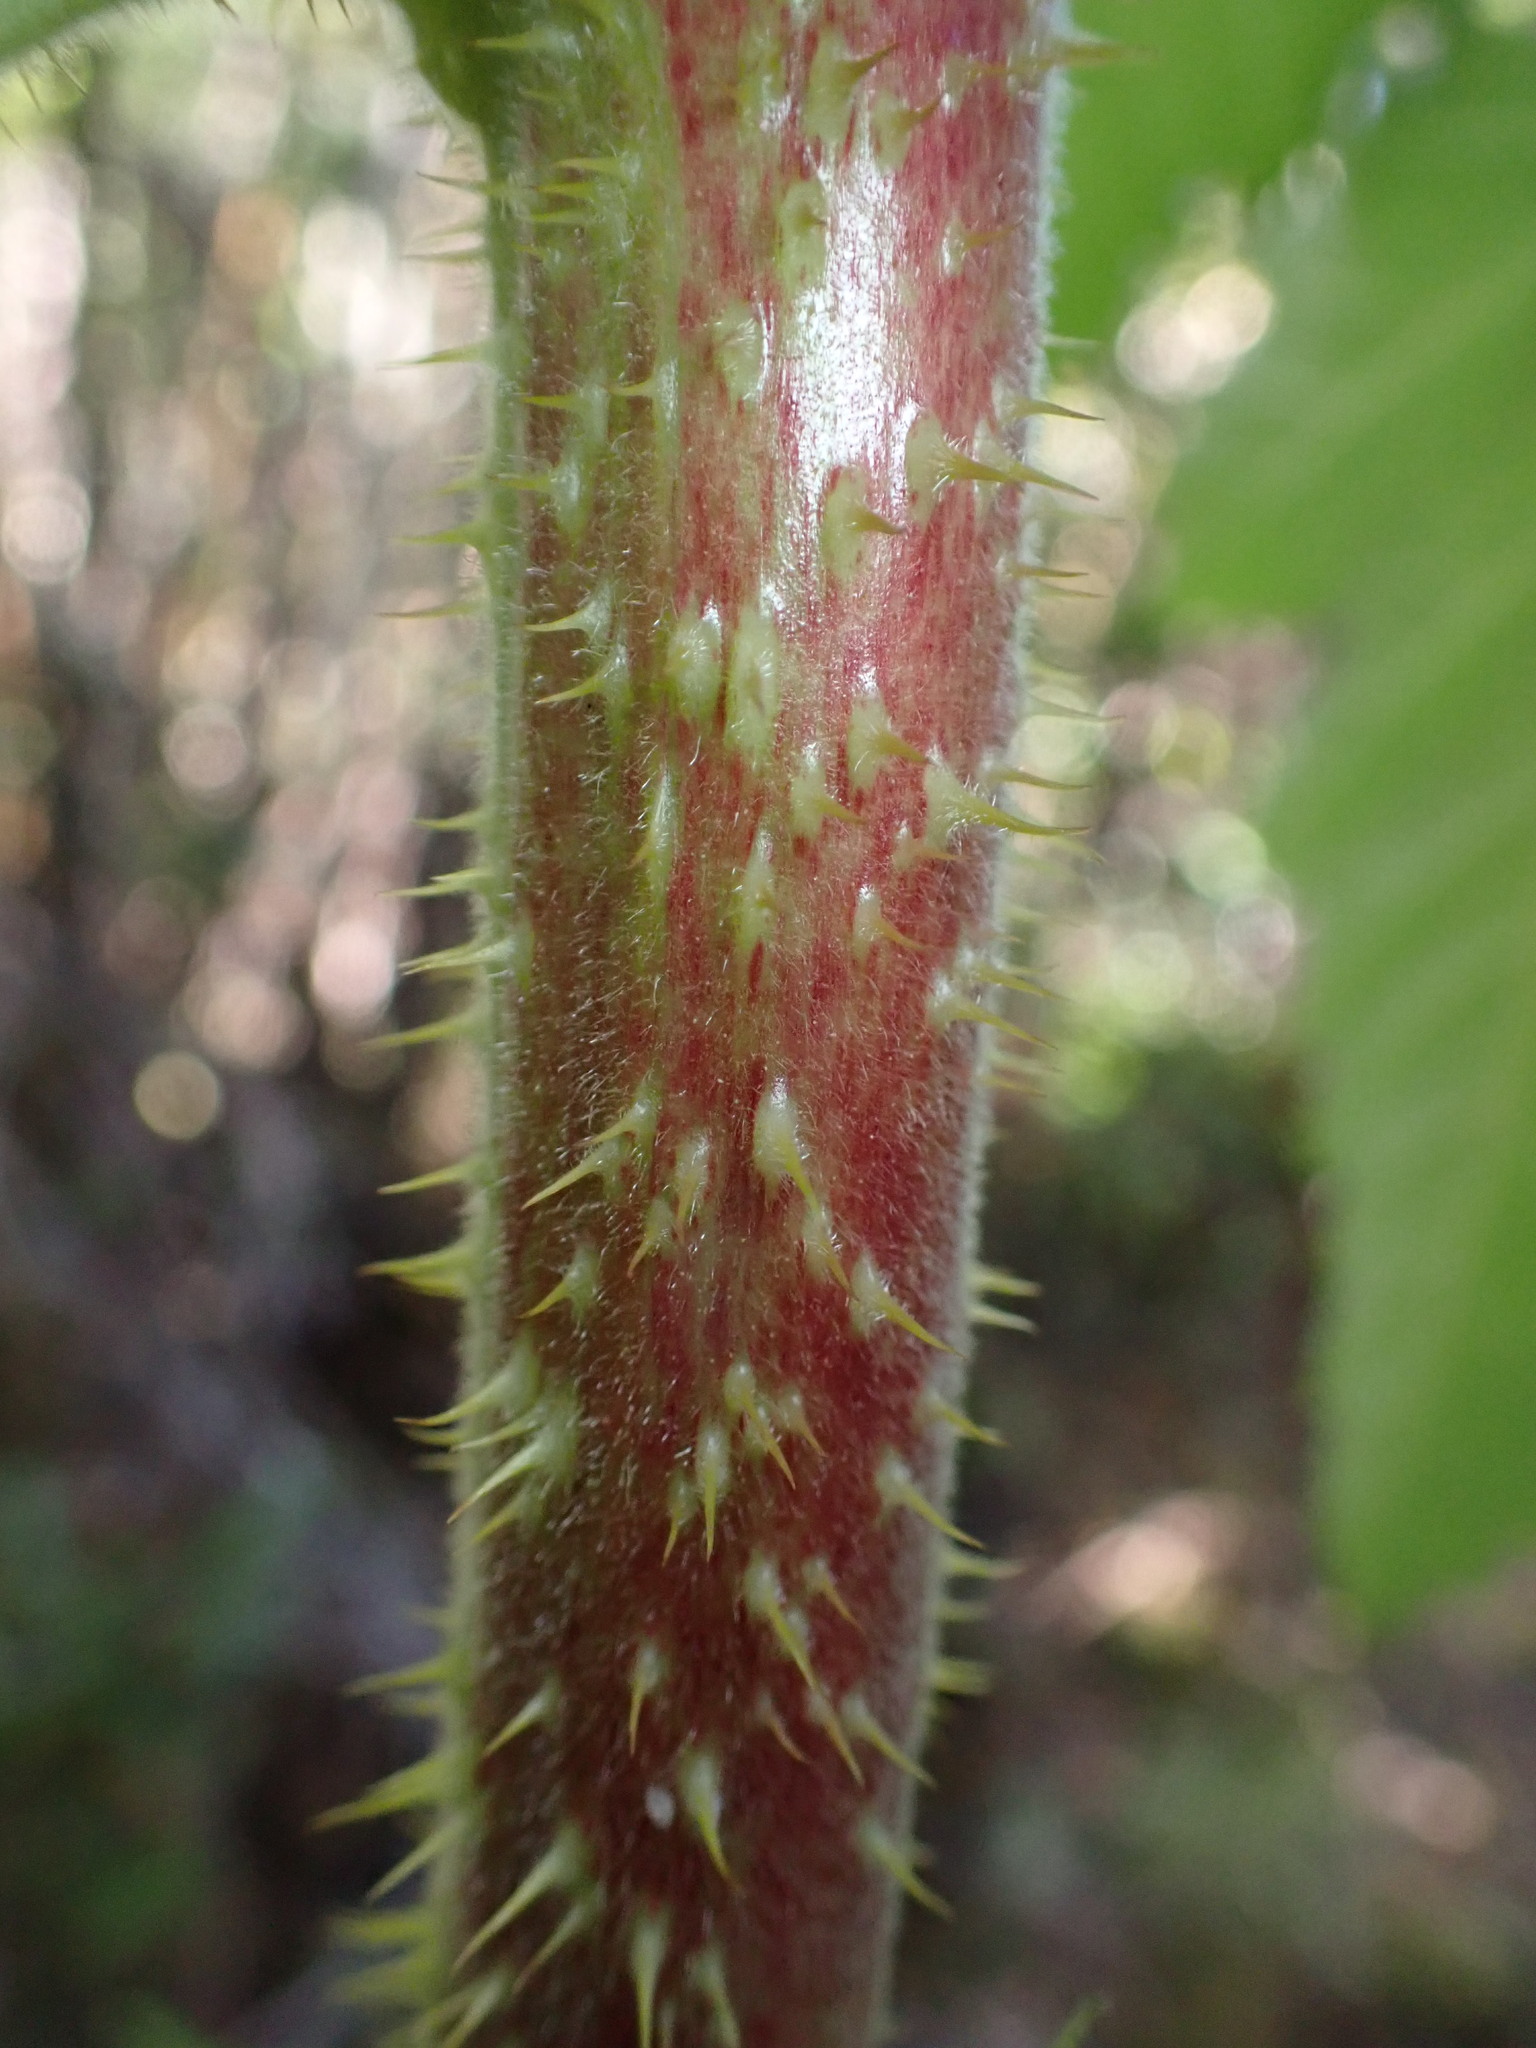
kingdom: Plantae
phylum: Tracheophyta
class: Magnoliopsida
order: Rosales
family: Rosaceae
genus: Rubus
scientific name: Rubus hawaiensis
